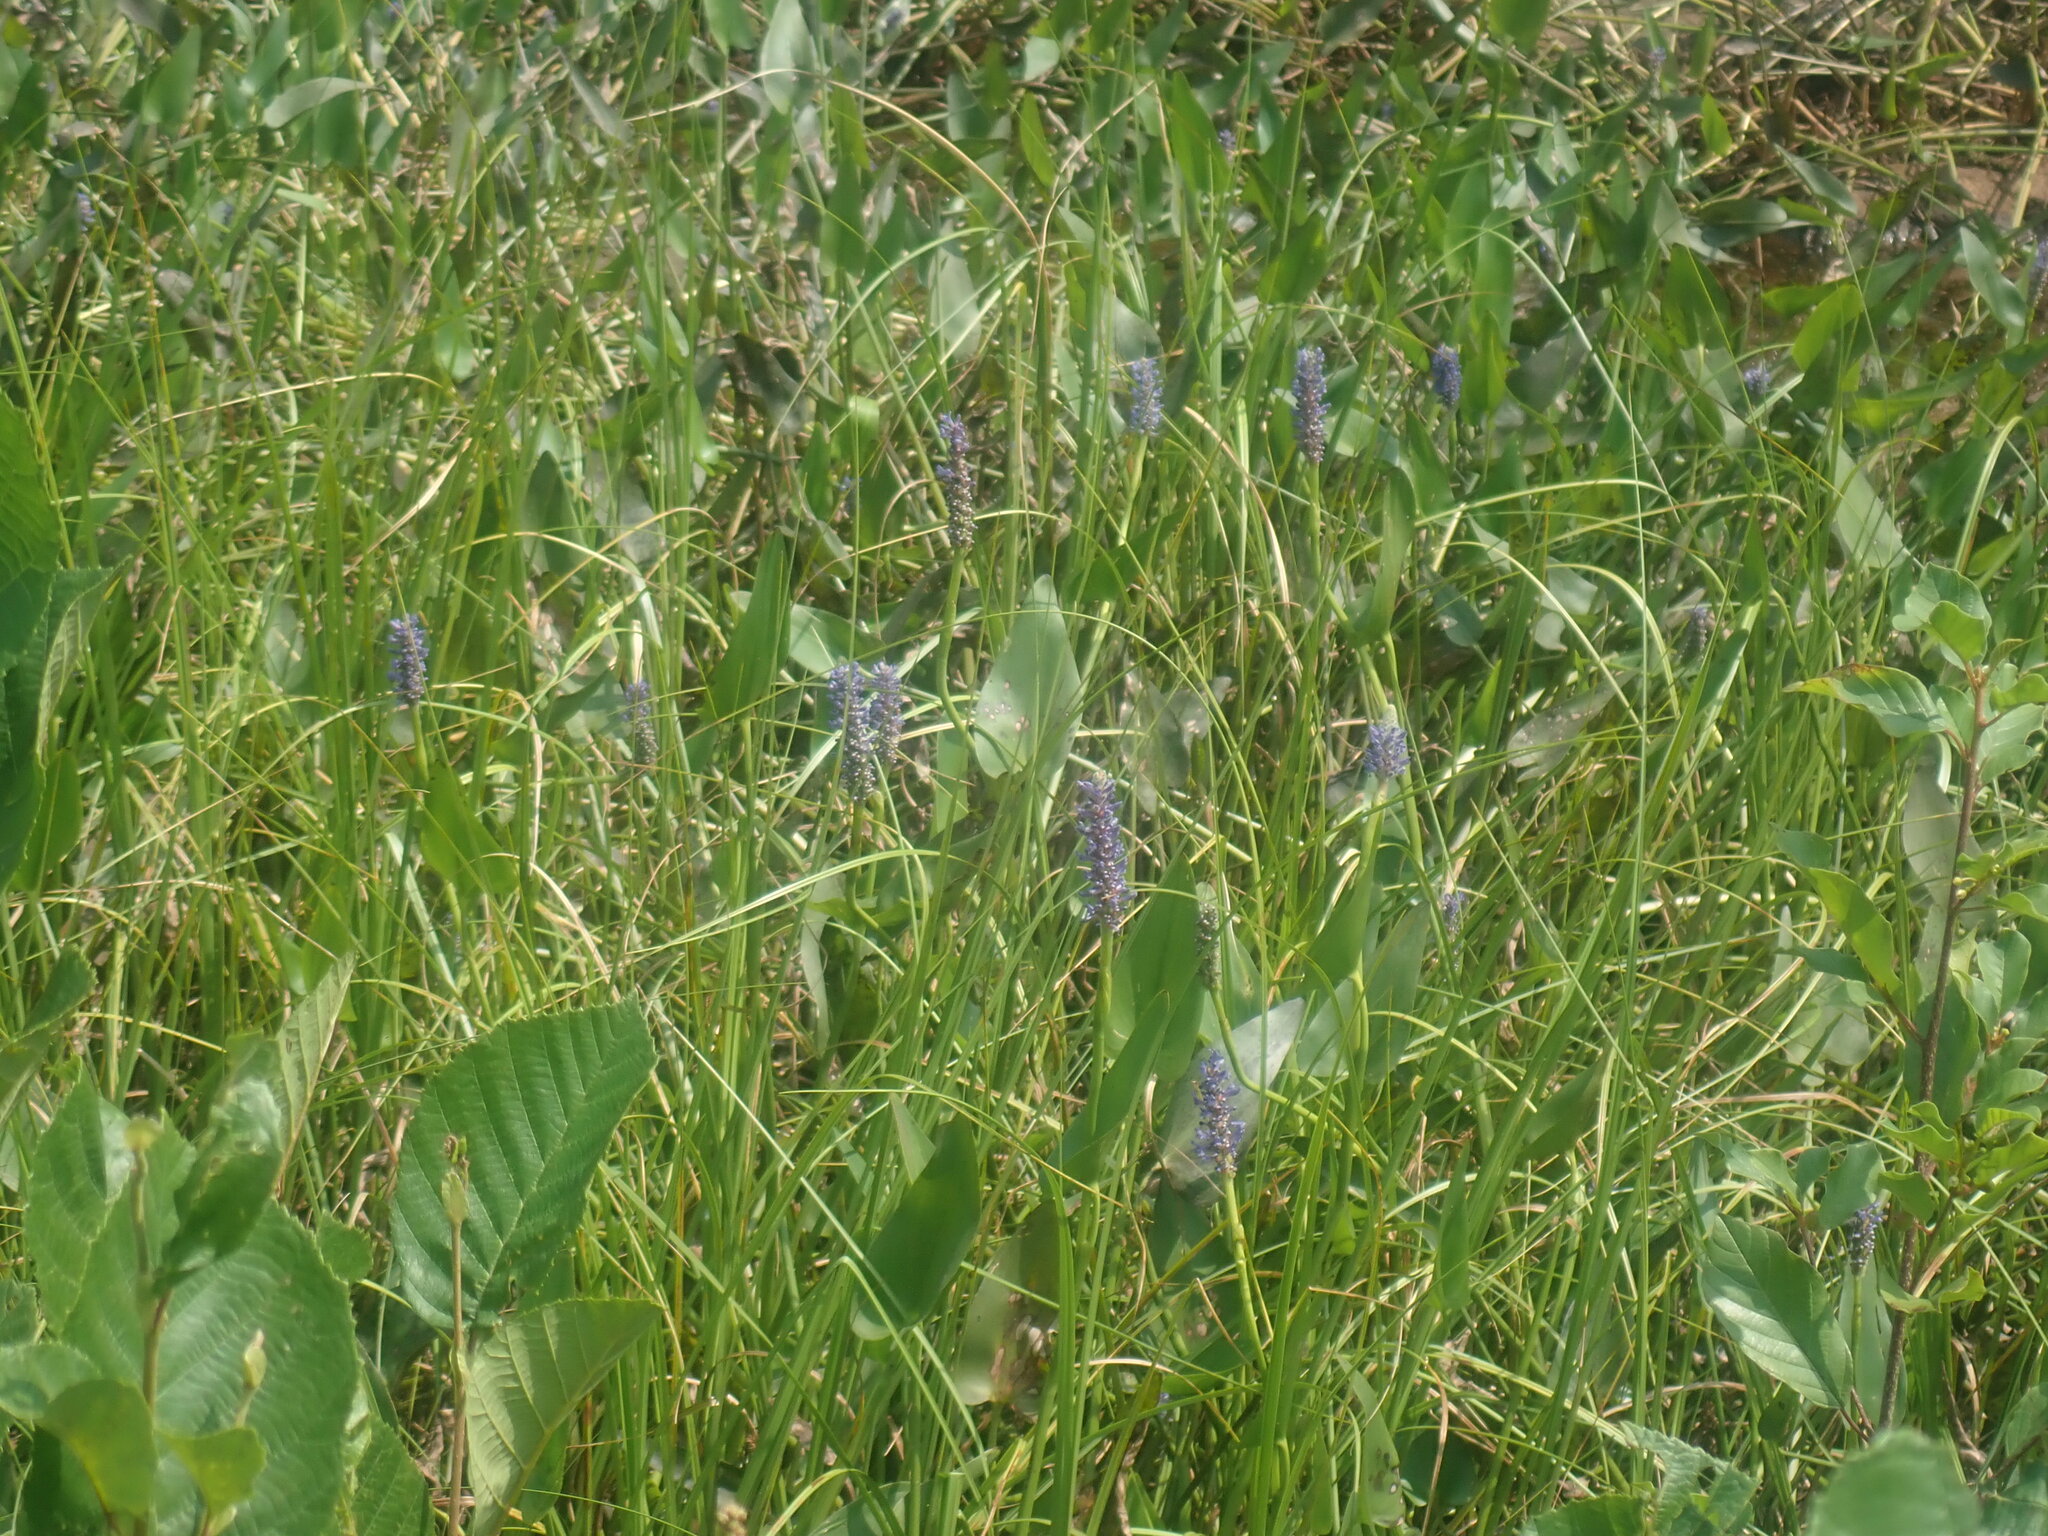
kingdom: Plantae
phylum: Tracheophyta
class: Liliopsida
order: Commelinales
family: Pontederiaceae
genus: Pontederia
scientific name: Pontederia cordata
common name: Pickerelweed
